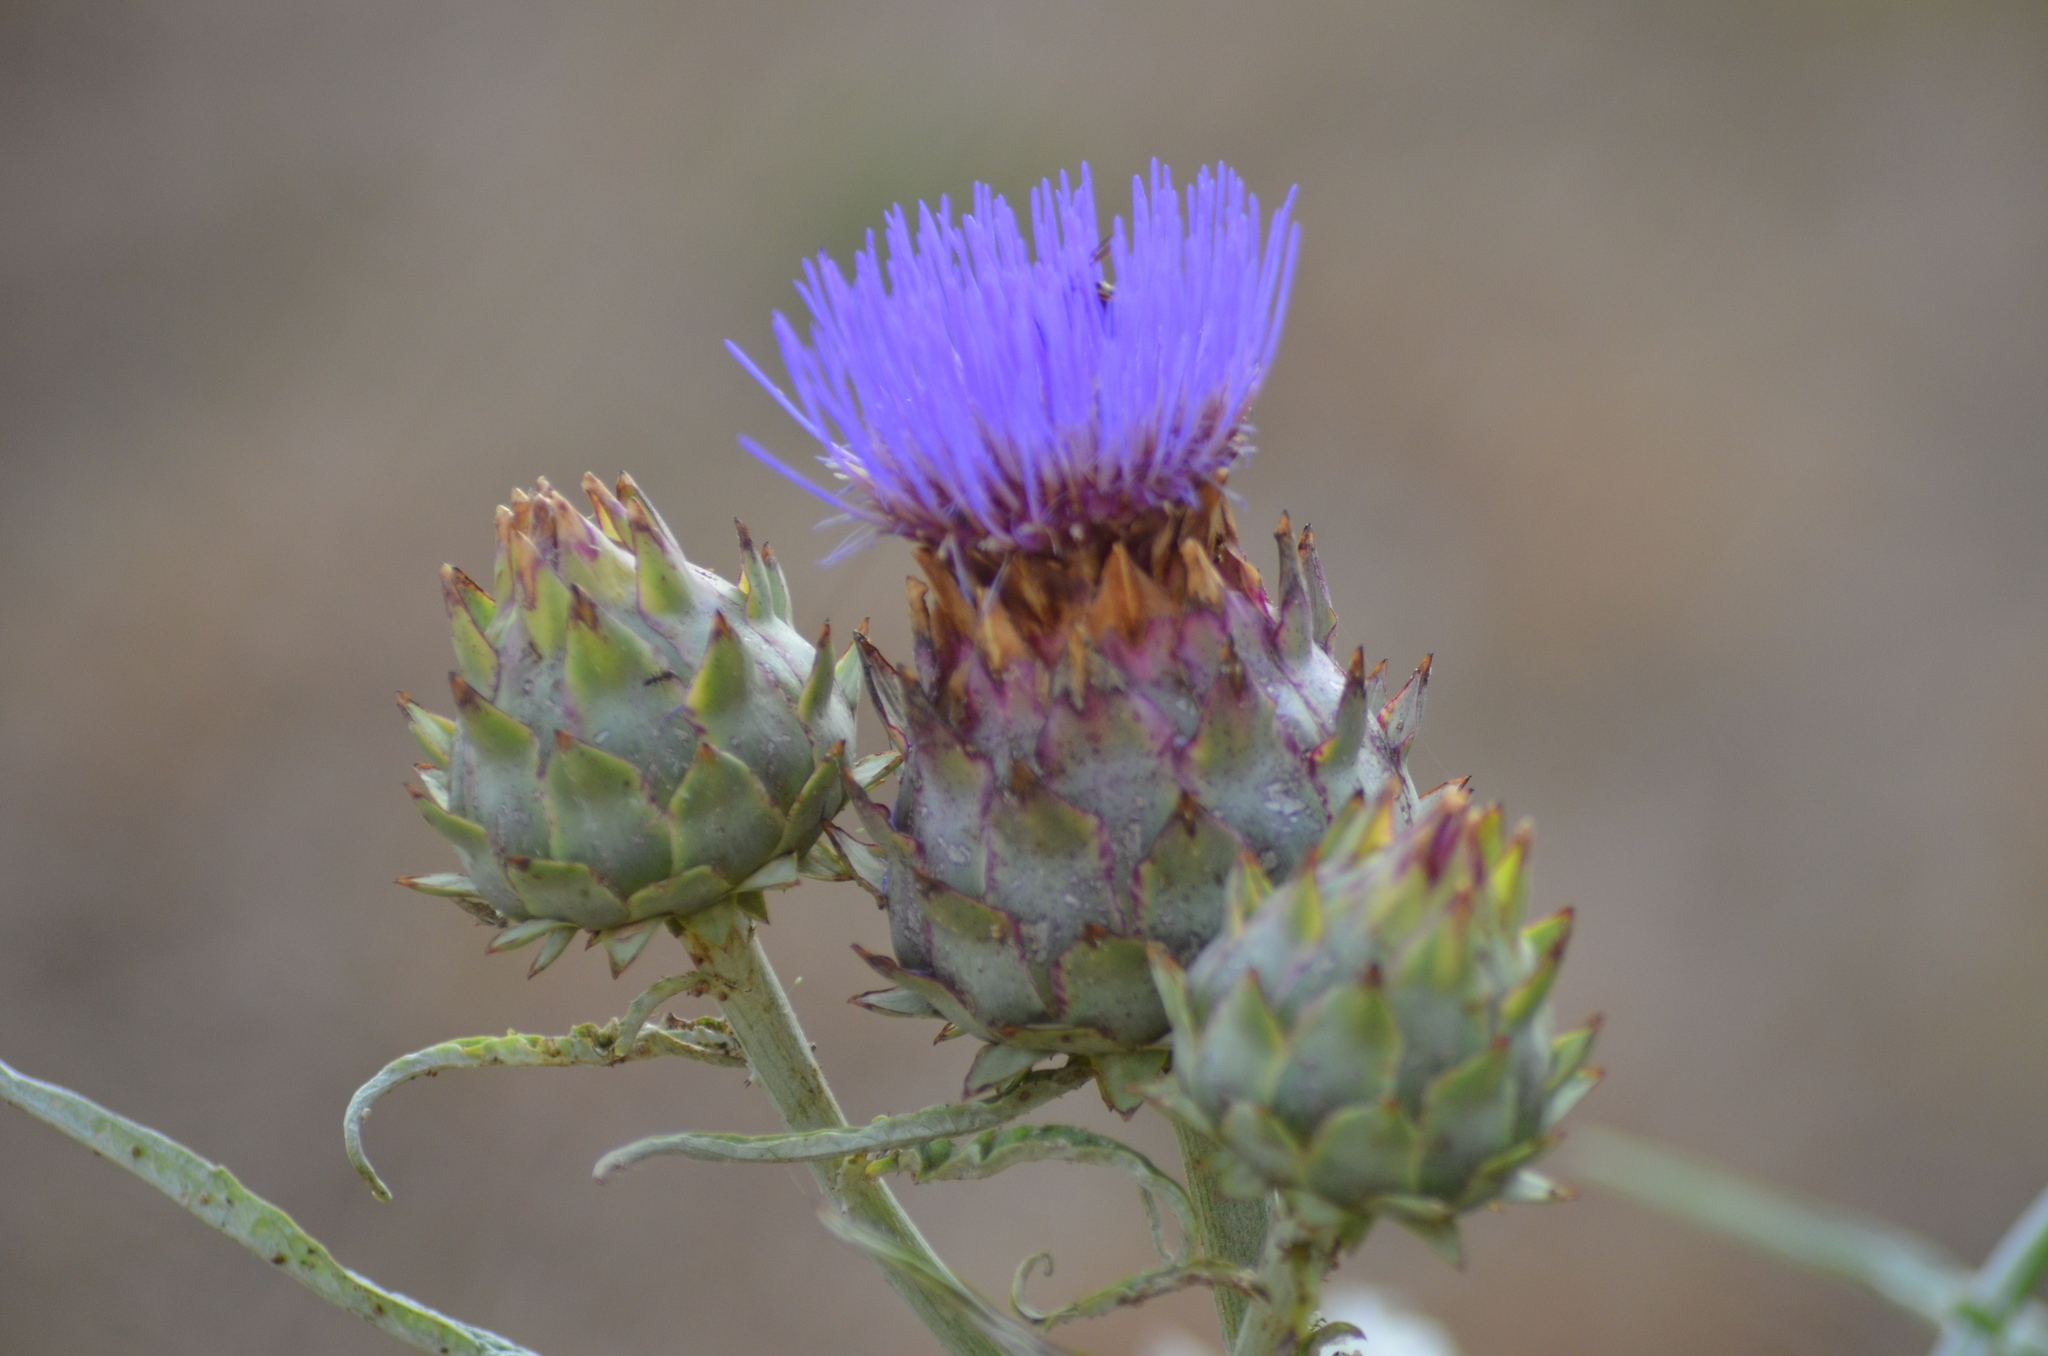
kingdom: Plantae
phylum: Tracheophyta
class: Magnoliopsida
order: Asterales
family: Asteraceae
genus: Cynara
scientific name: Cynara cardunculus
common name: Globe artichoke
